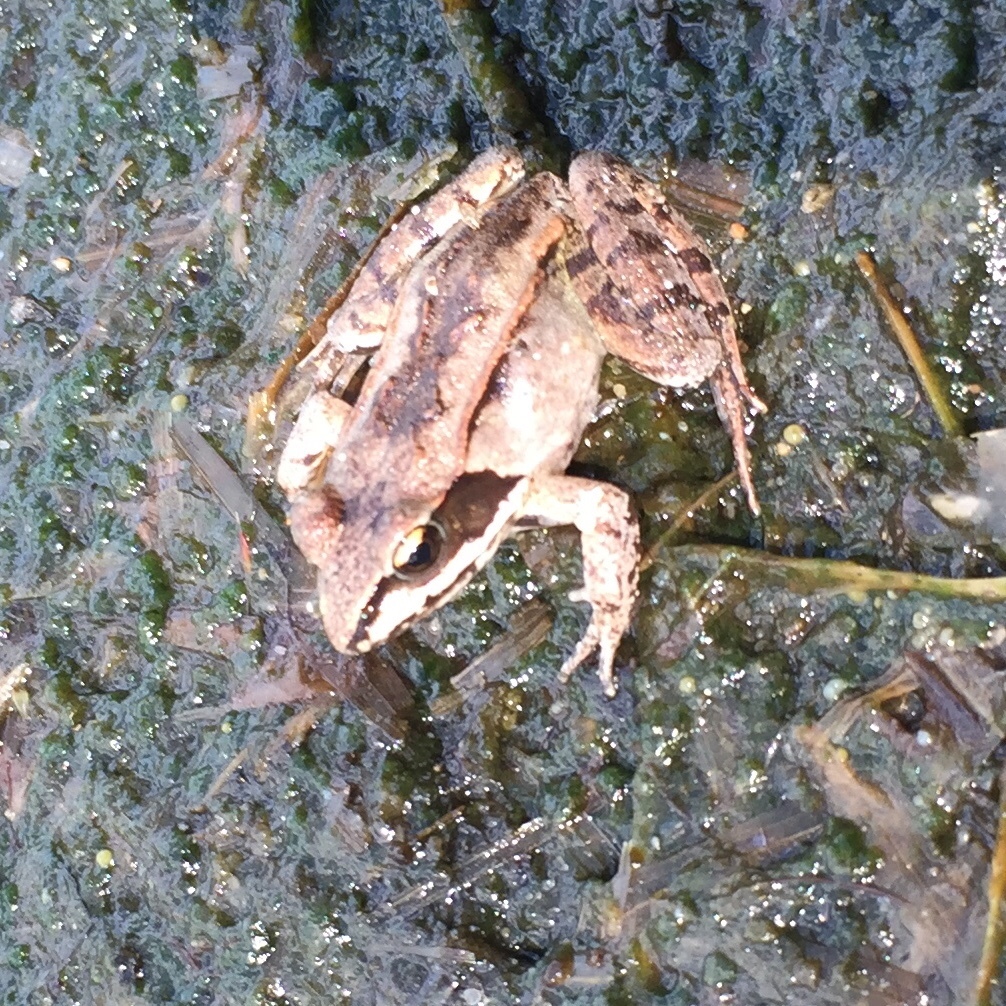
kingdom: Animalia
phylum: Chordata
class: Amphibia
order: Anura
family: Ranidae
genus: Lithobates
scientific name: Lithobates sylvaticus
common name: Wood frog
